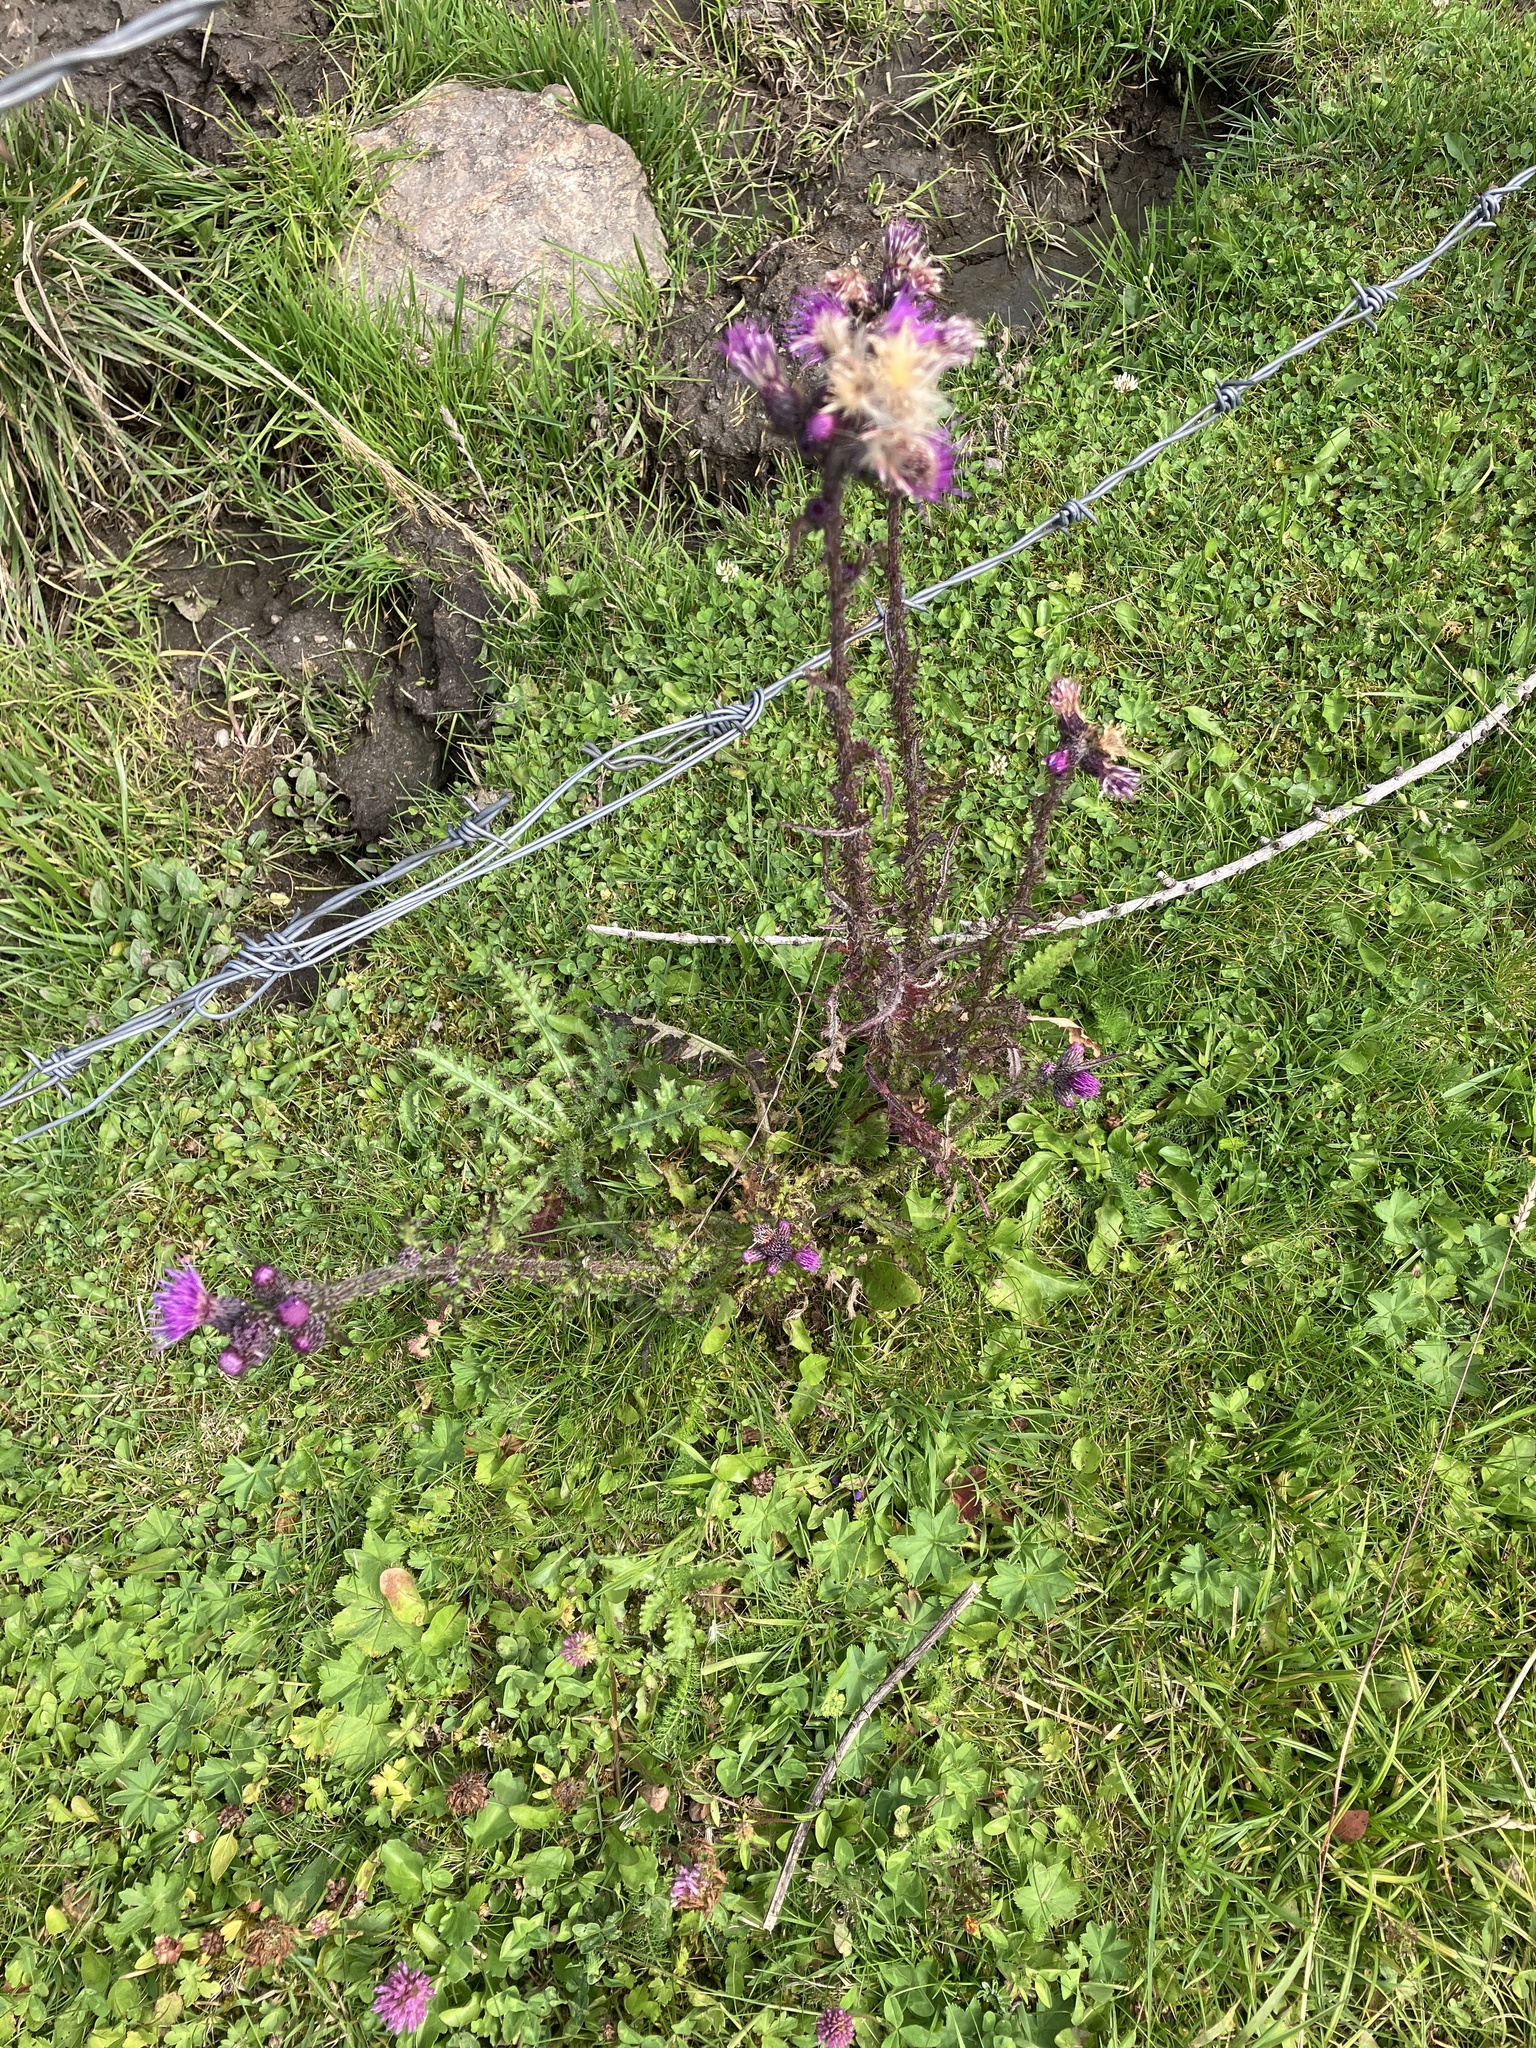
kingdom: Plantae
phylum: Tracheophyta
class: Magnoliopsida
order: Asterales
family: Asteraceae
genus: Cirsium
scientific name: Cirsium palustre
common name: Marsh thistle
